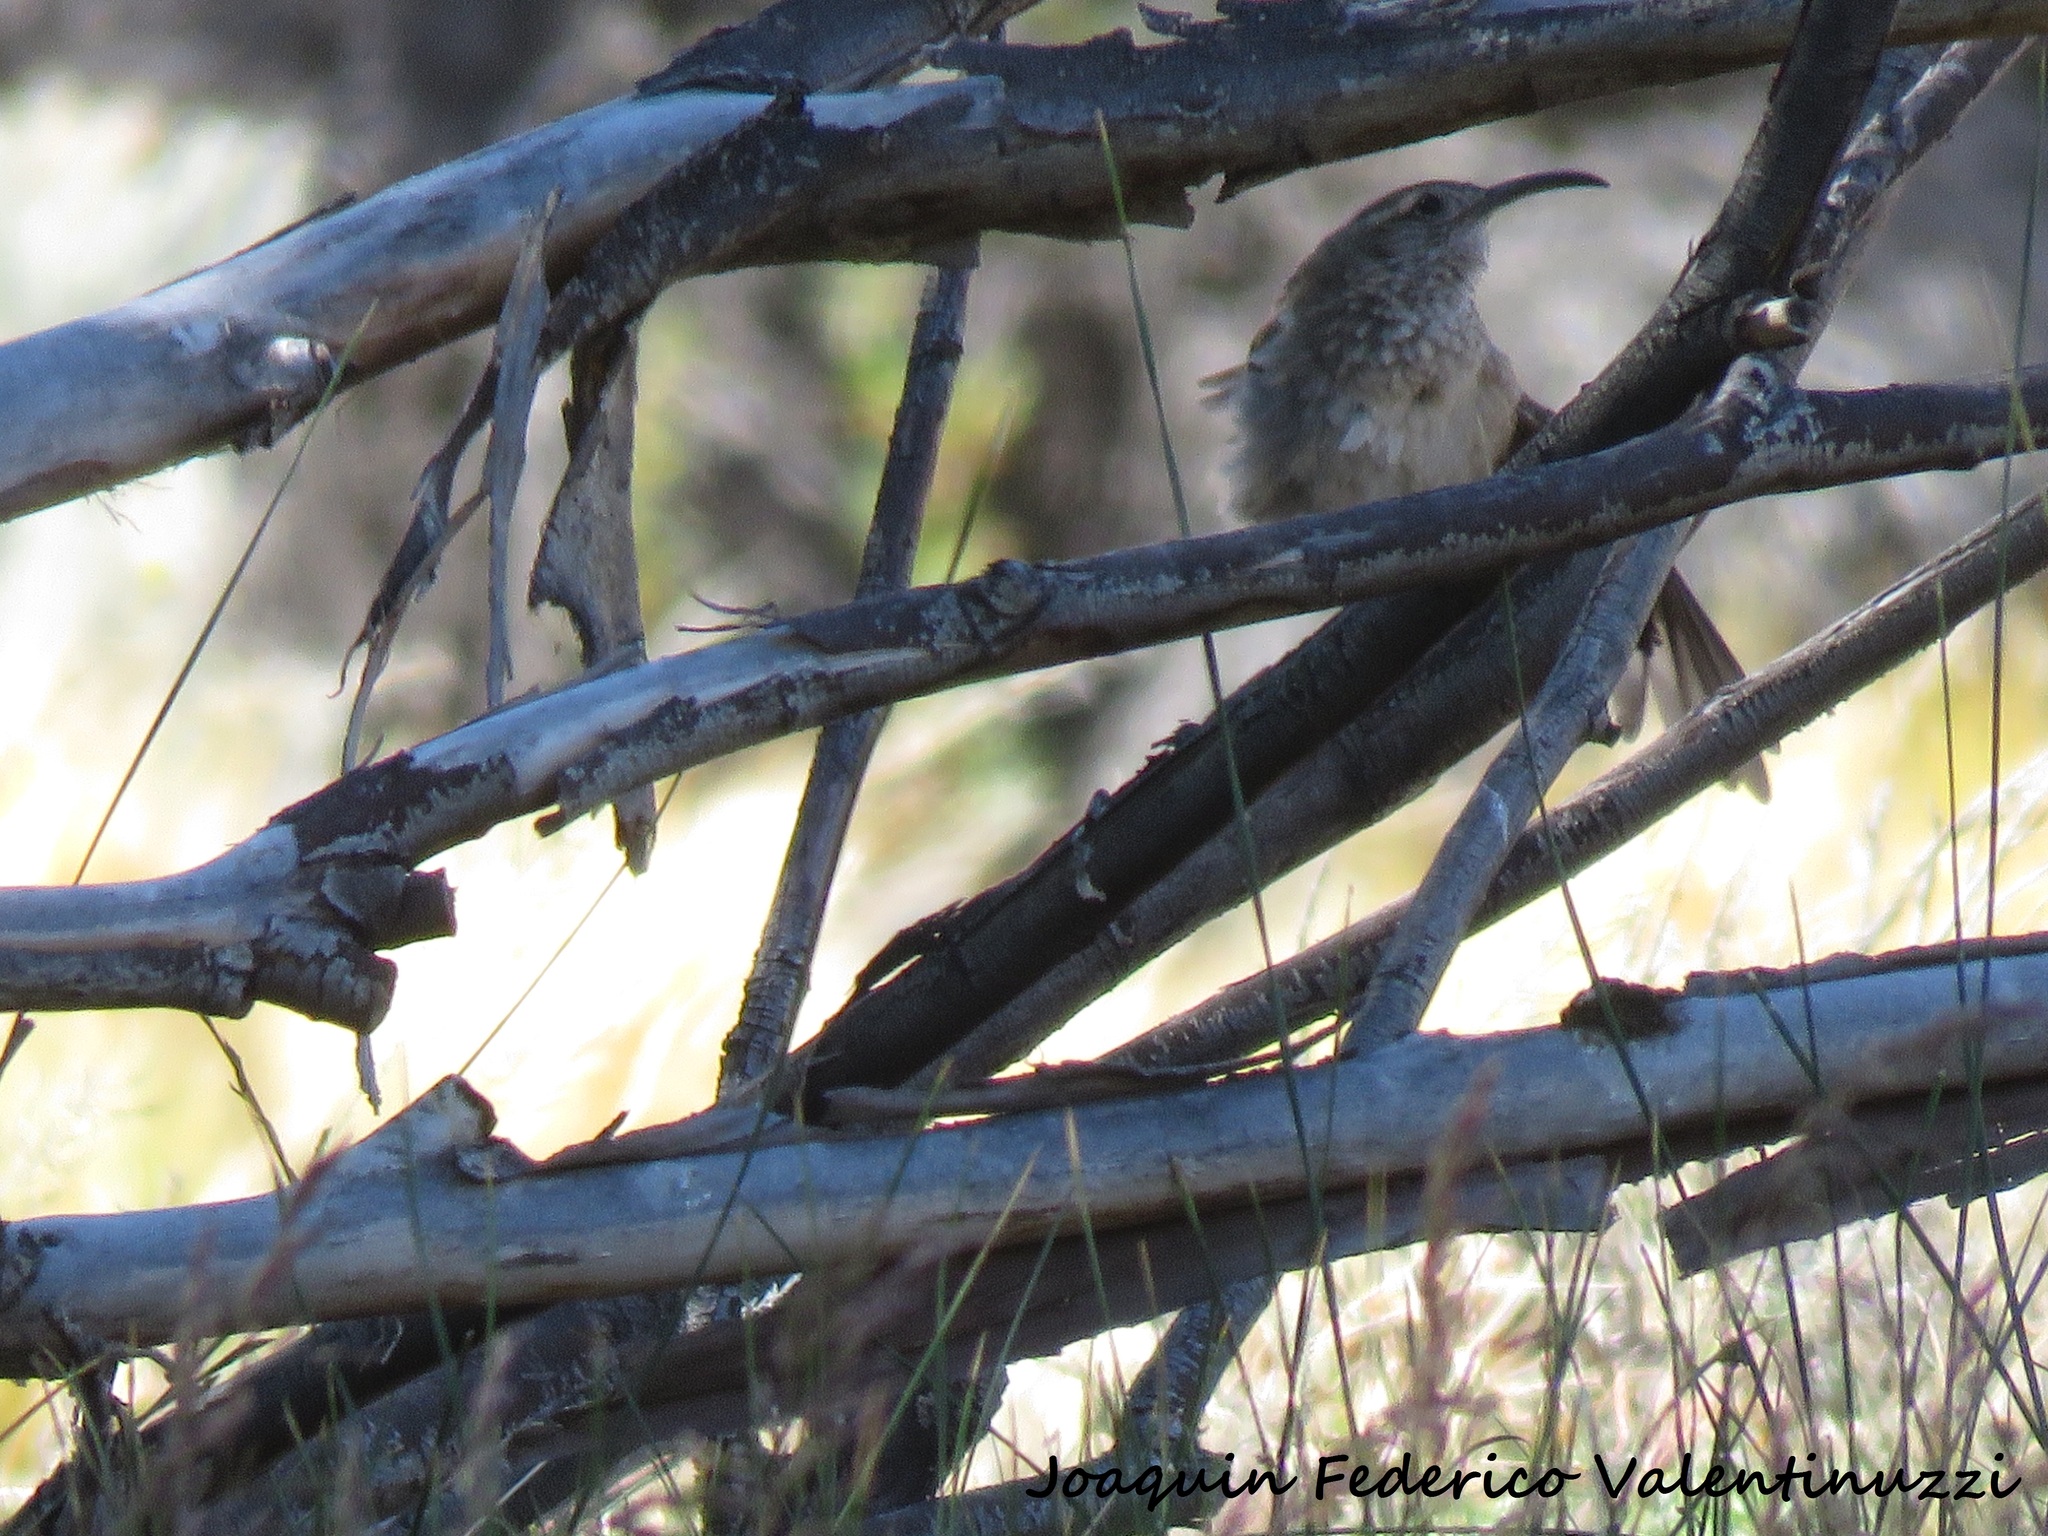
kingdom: Animalia
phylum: Chordata
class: Aves
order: Passeriformes
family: Furnariidae
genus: Upucerthia
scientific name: Upucerthia dumetaria
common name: Scale-throated earthcreeper
